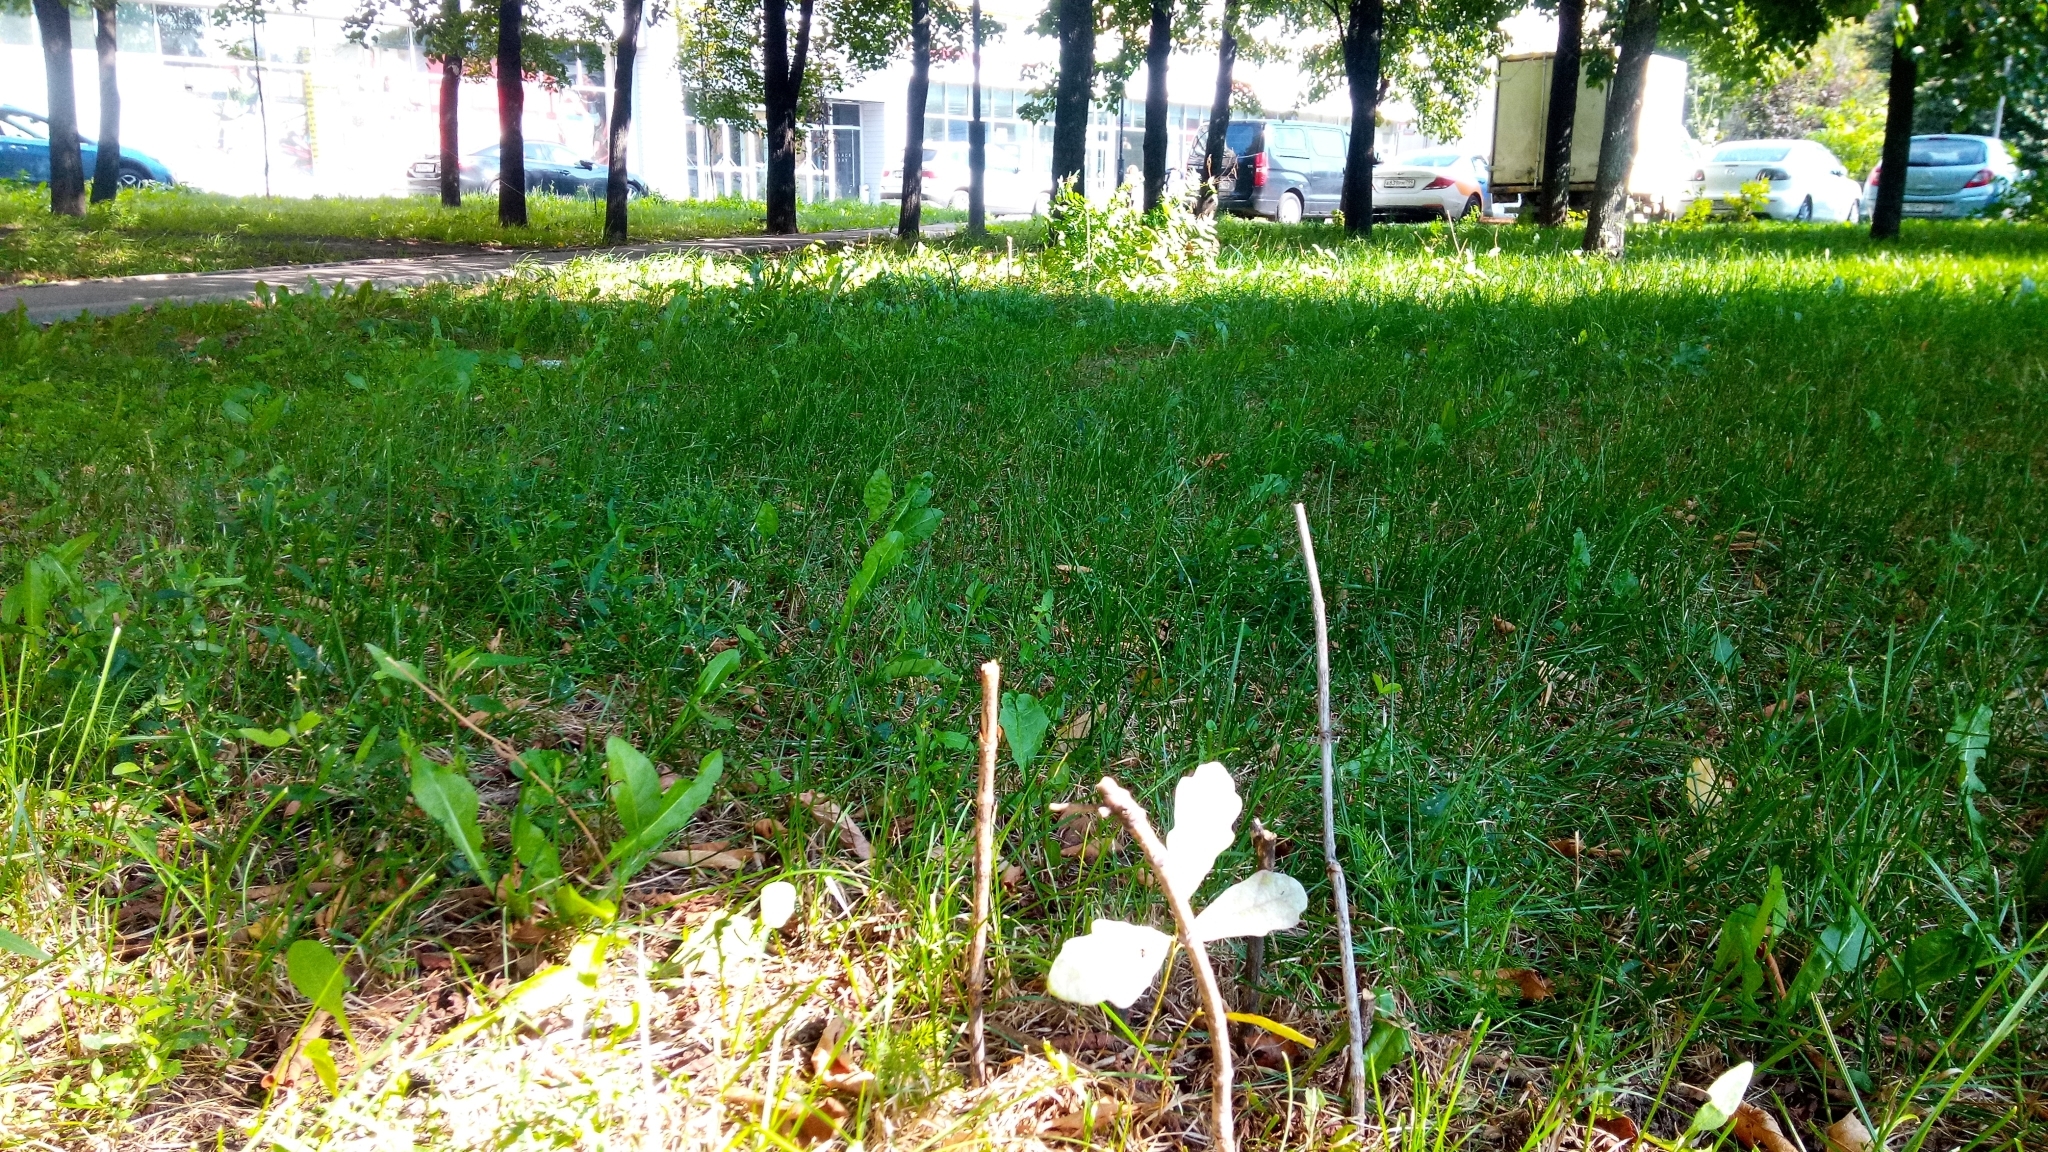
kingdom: Plantae
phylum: Tracheophyta
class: Magnoliopsida
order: Fagales
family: Fagaceae
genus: Quercus
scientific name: Quercus robur
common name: Pedunculate oak
